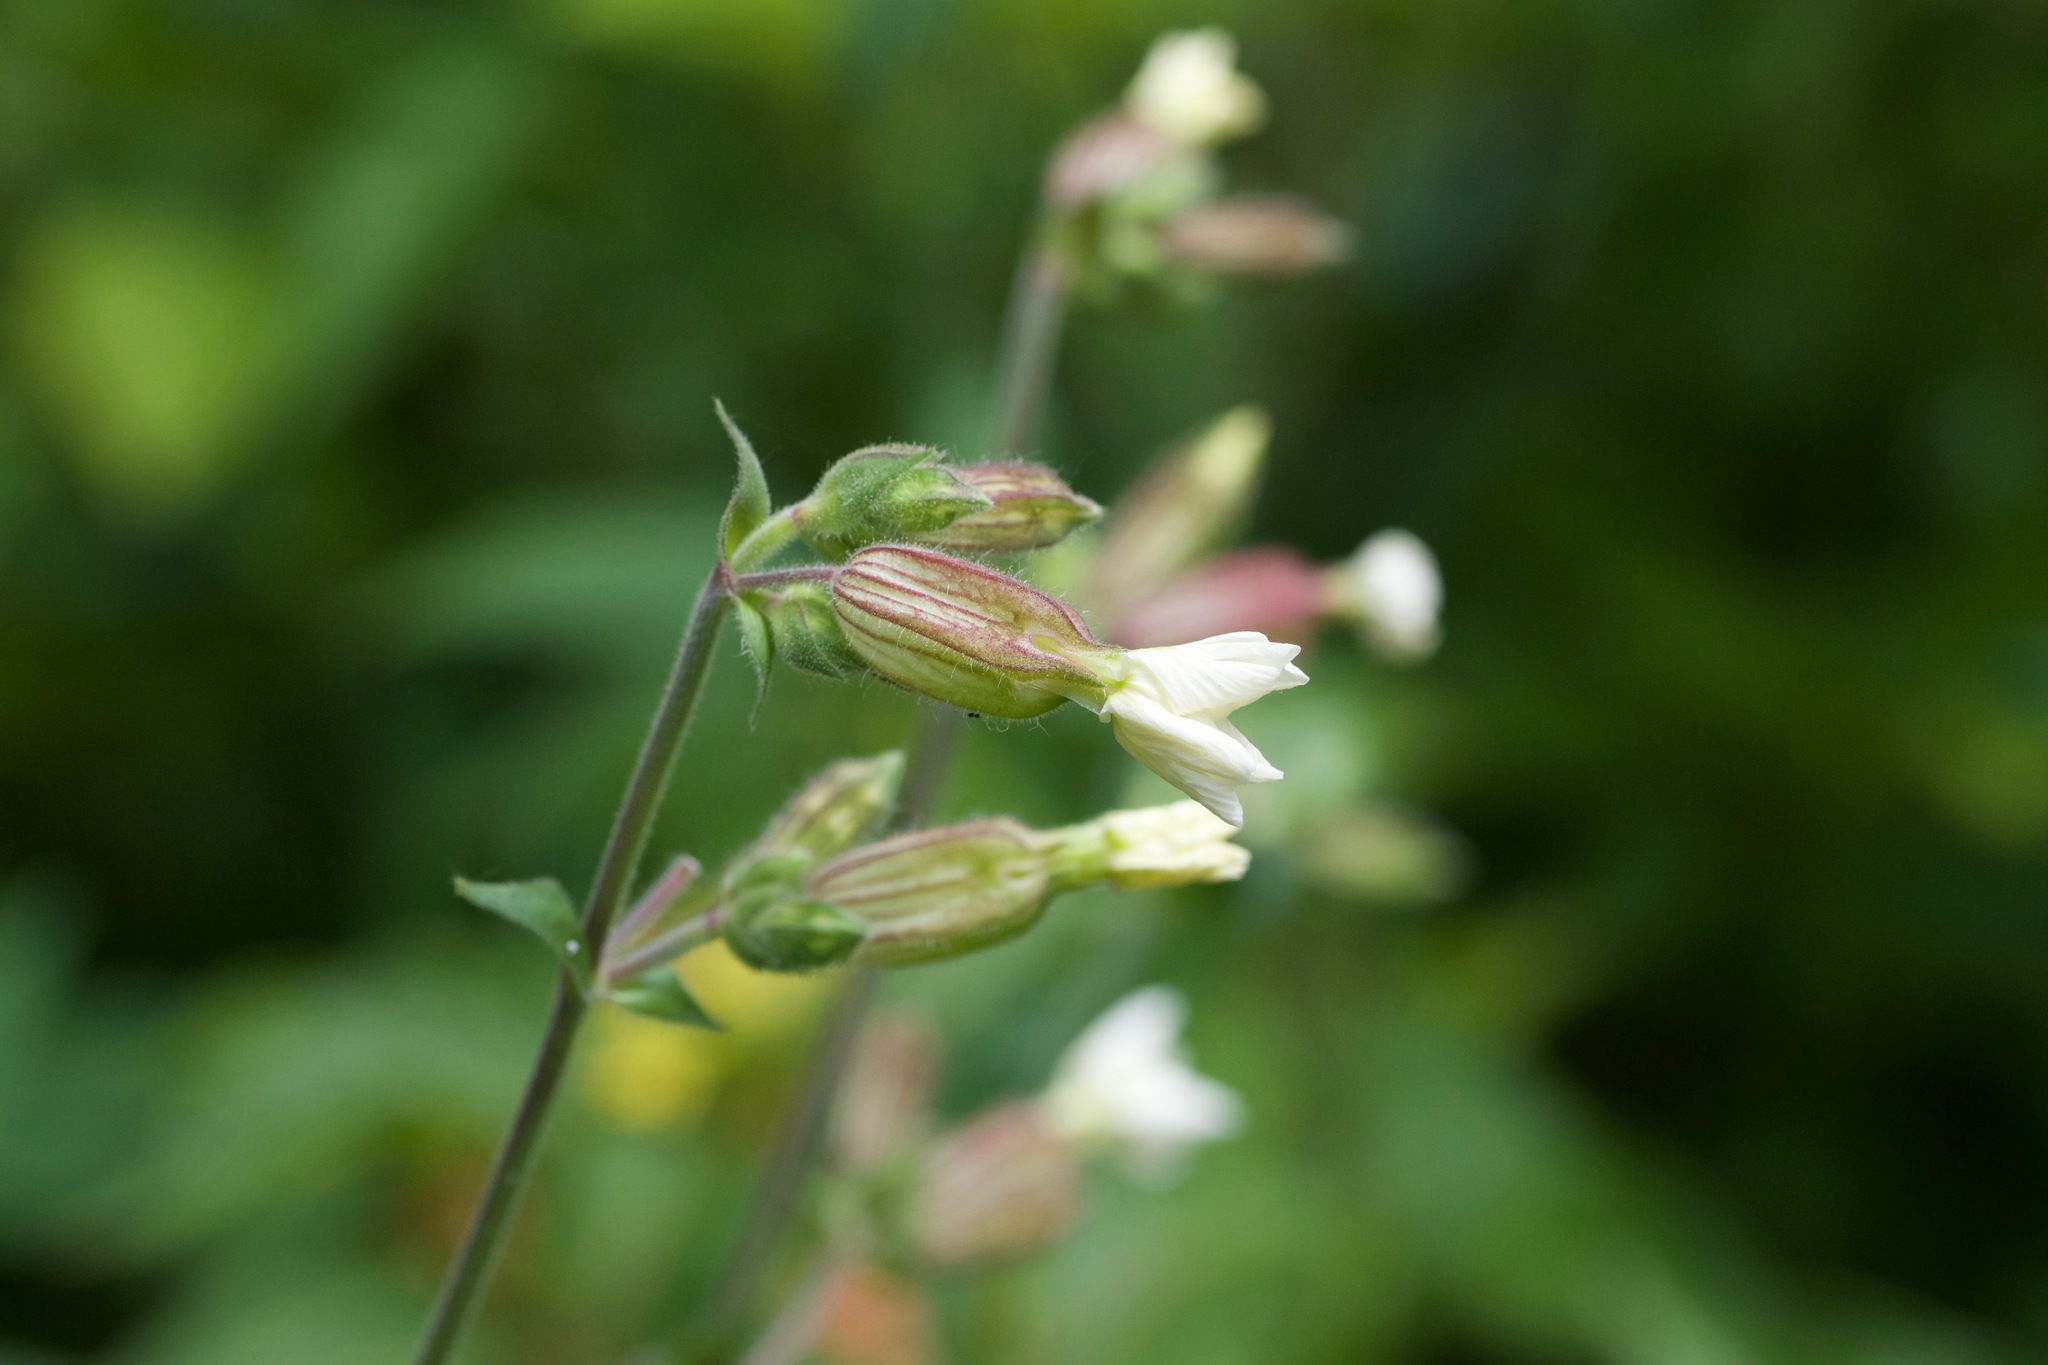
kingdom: Plantae
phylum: Tracheophyta
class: Magnoliopsida
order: Caryophyllales
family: Caryophyllaceae
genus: Silene
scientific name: Silene latifolia
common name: White campion
